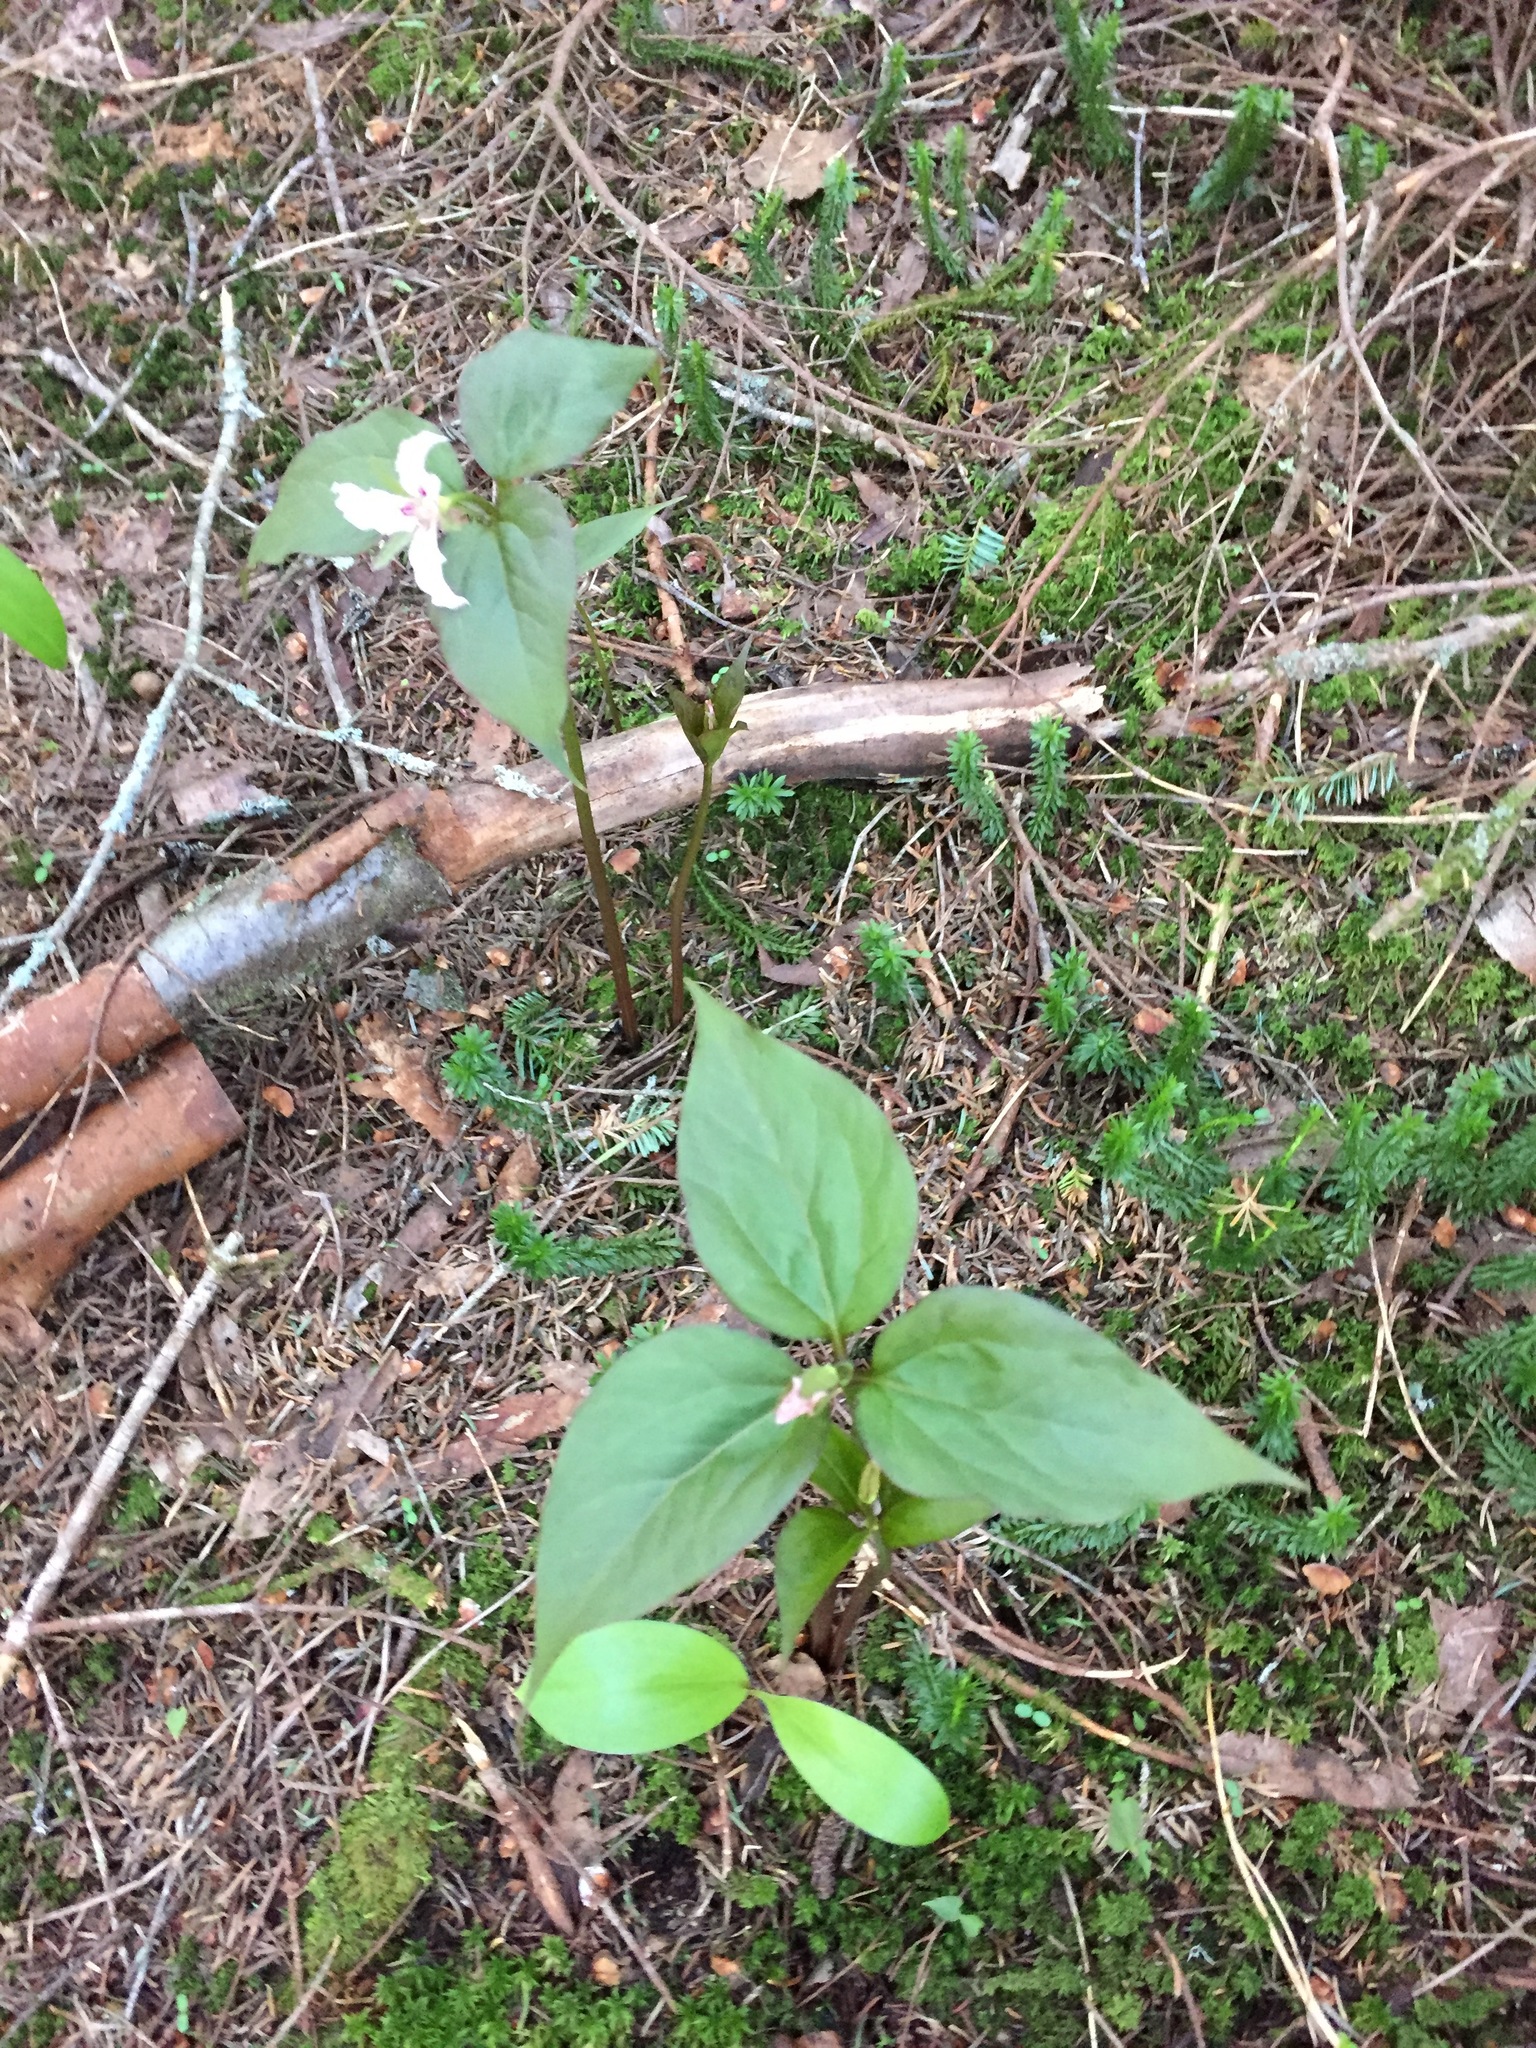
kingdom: Plantae
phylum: Tracheophyta
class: Liliopsida
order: Liliales
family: Melanthiaceae
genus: Trillium
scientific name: Trillium undulatum
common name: Paint trillium
